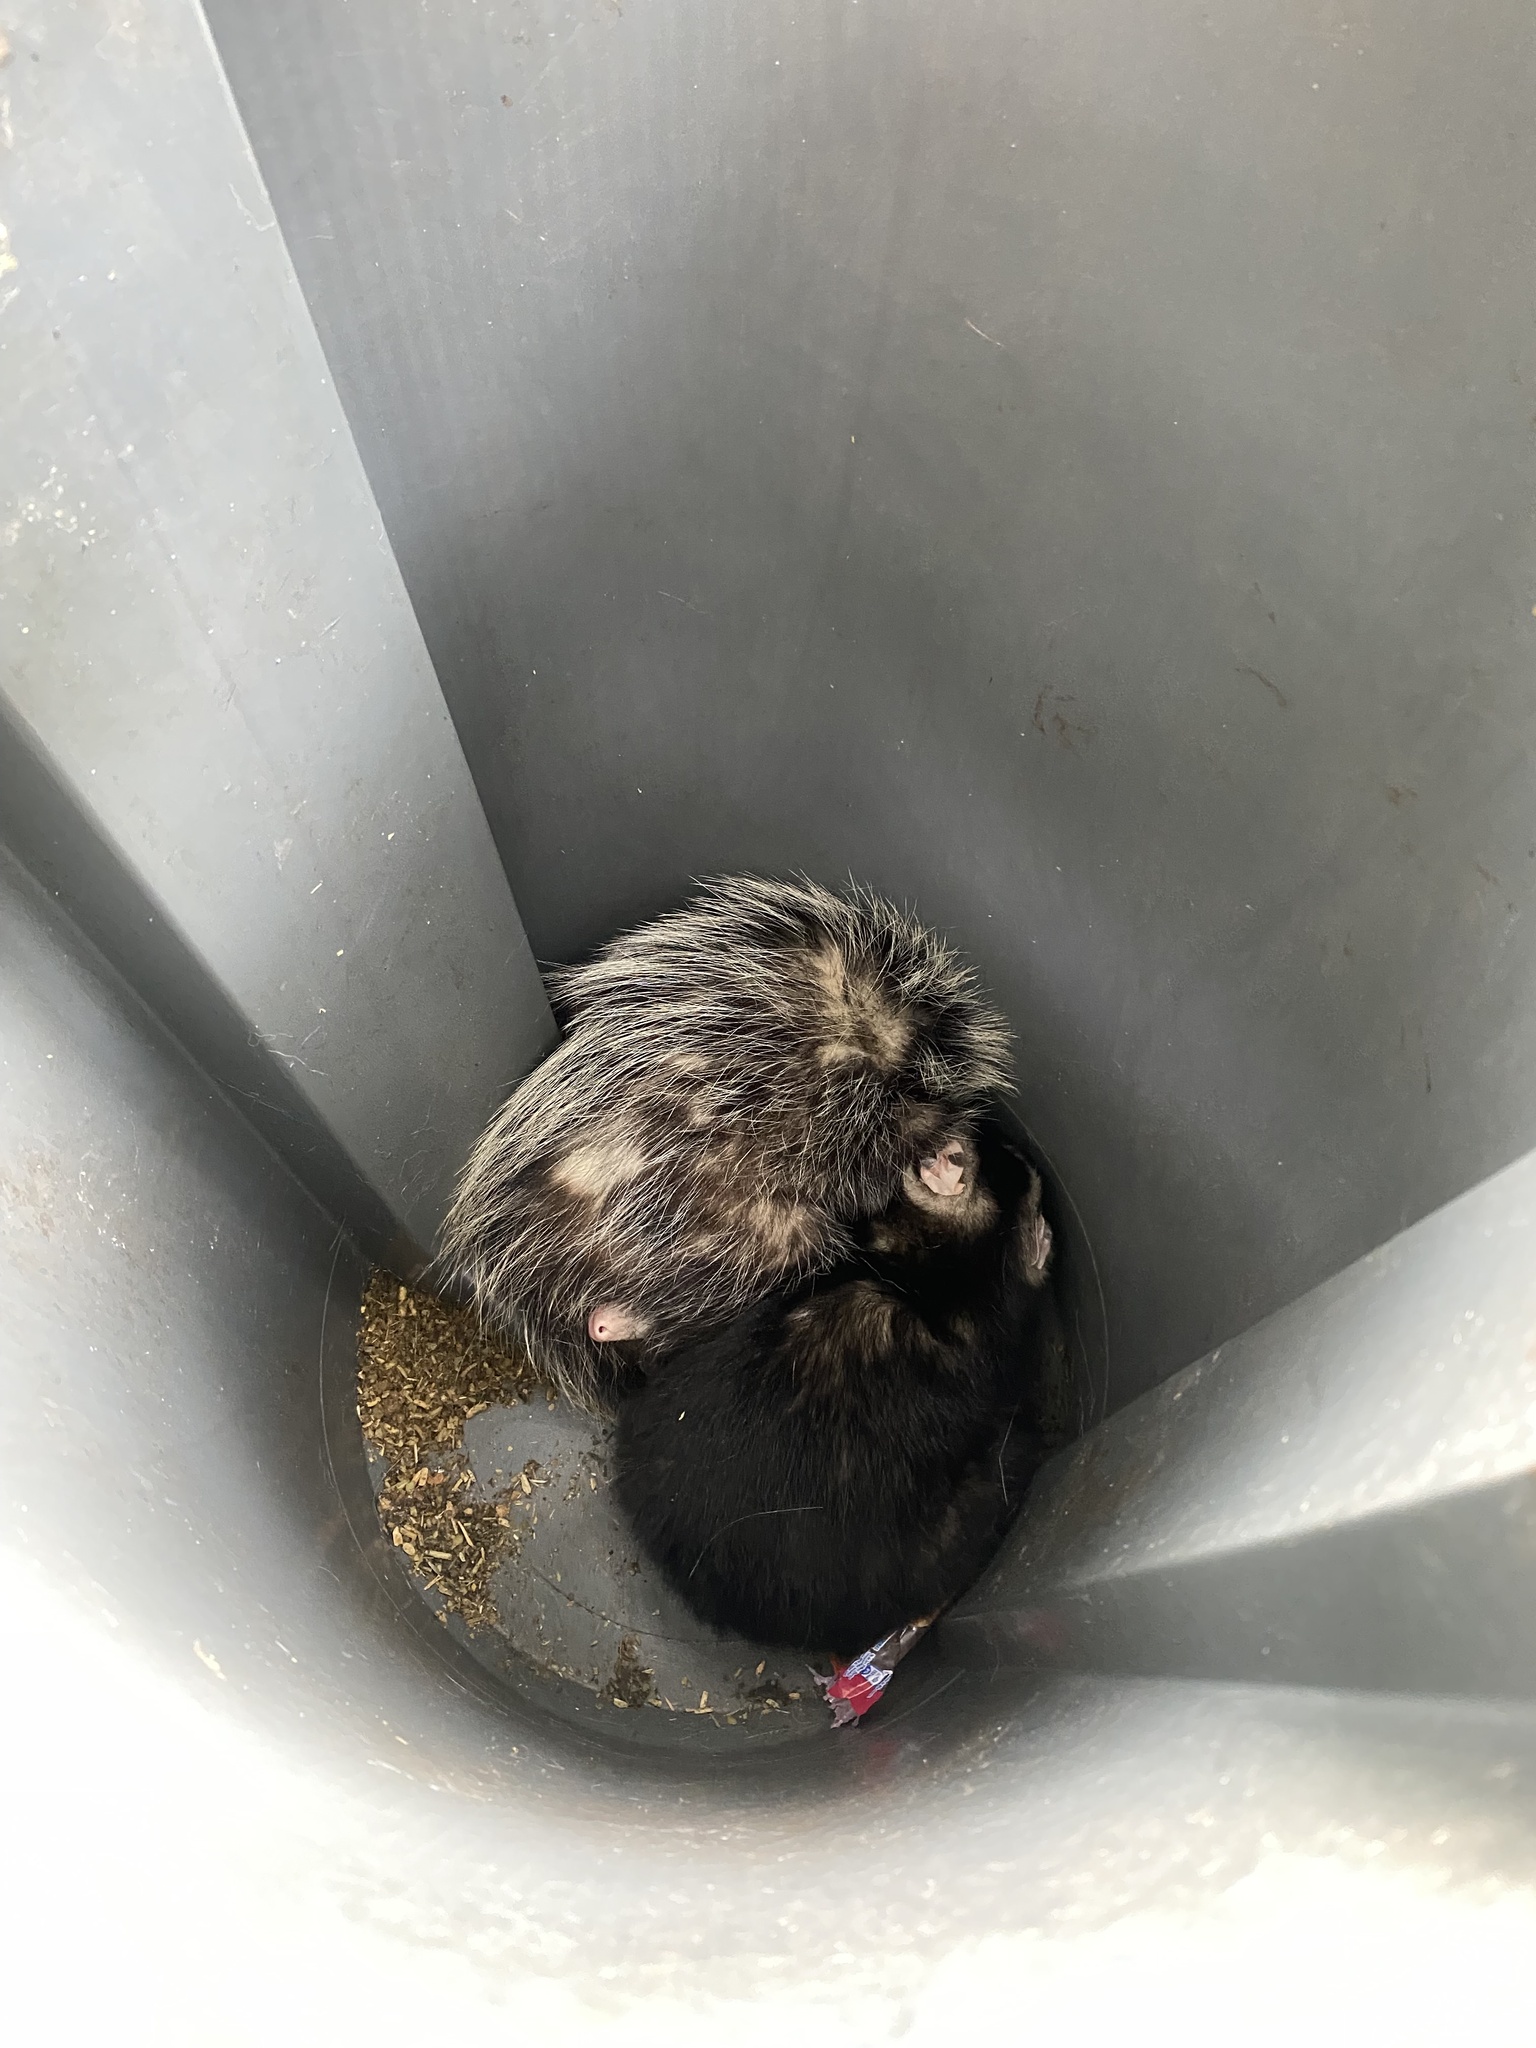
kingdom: Animalia
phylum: Chordata
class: Mammalia
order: Didelphimorphia
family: Didelphidae
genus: Didelphis
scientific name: Didelphis albiventris
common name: White-eared opossum
